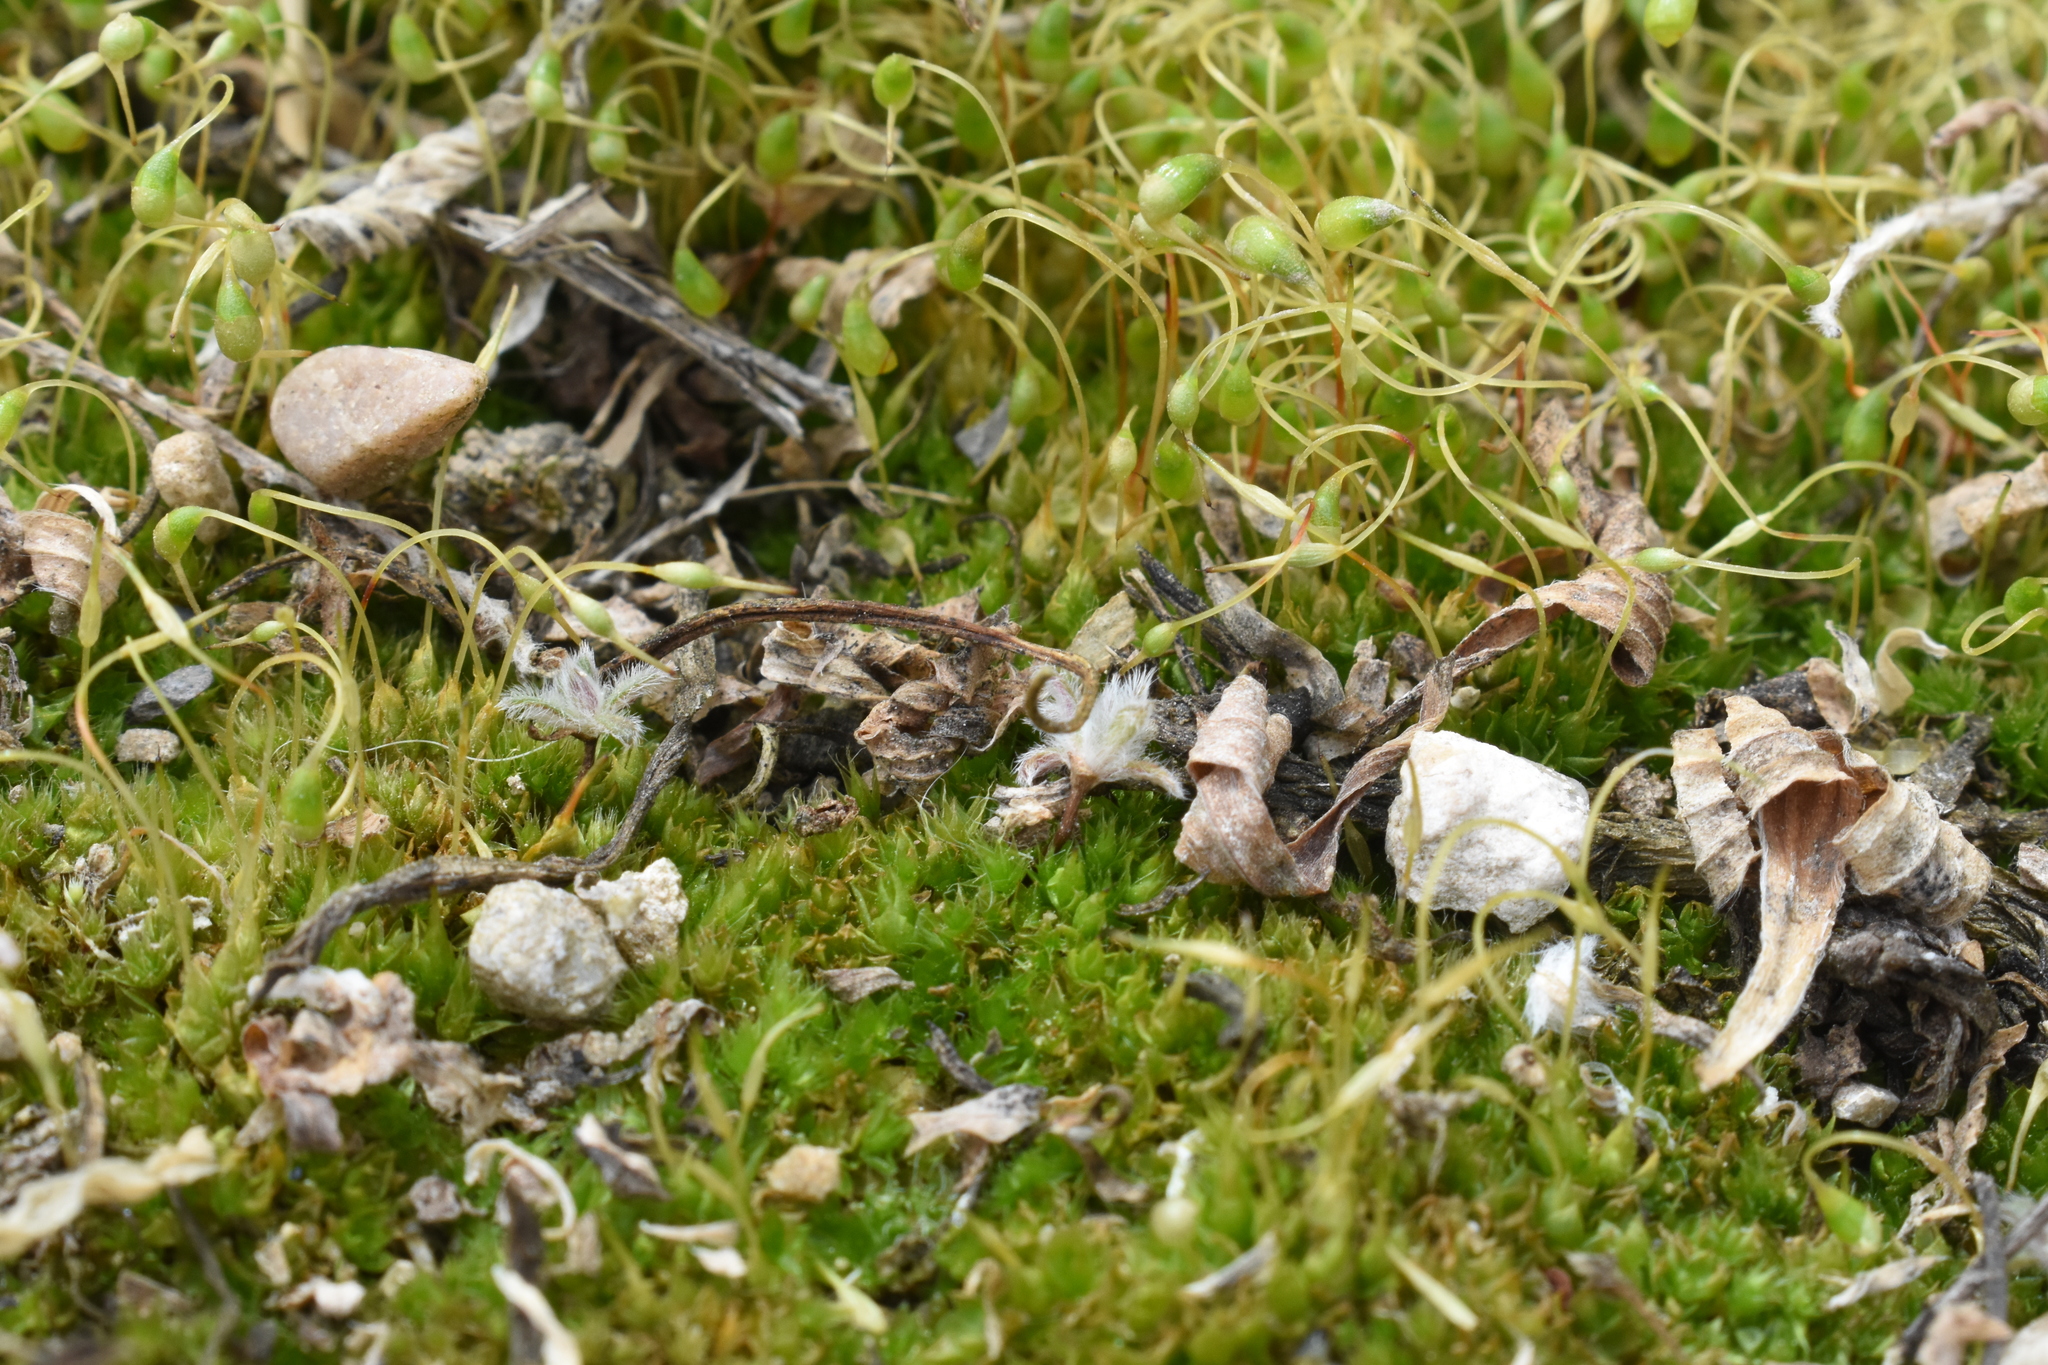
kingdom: Plantae
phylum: Bryophyta
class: Bryopsida
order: Funariales
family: Funariaceae
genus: Funaria
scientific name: Funaria hygrometrica
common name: Common cord moss
